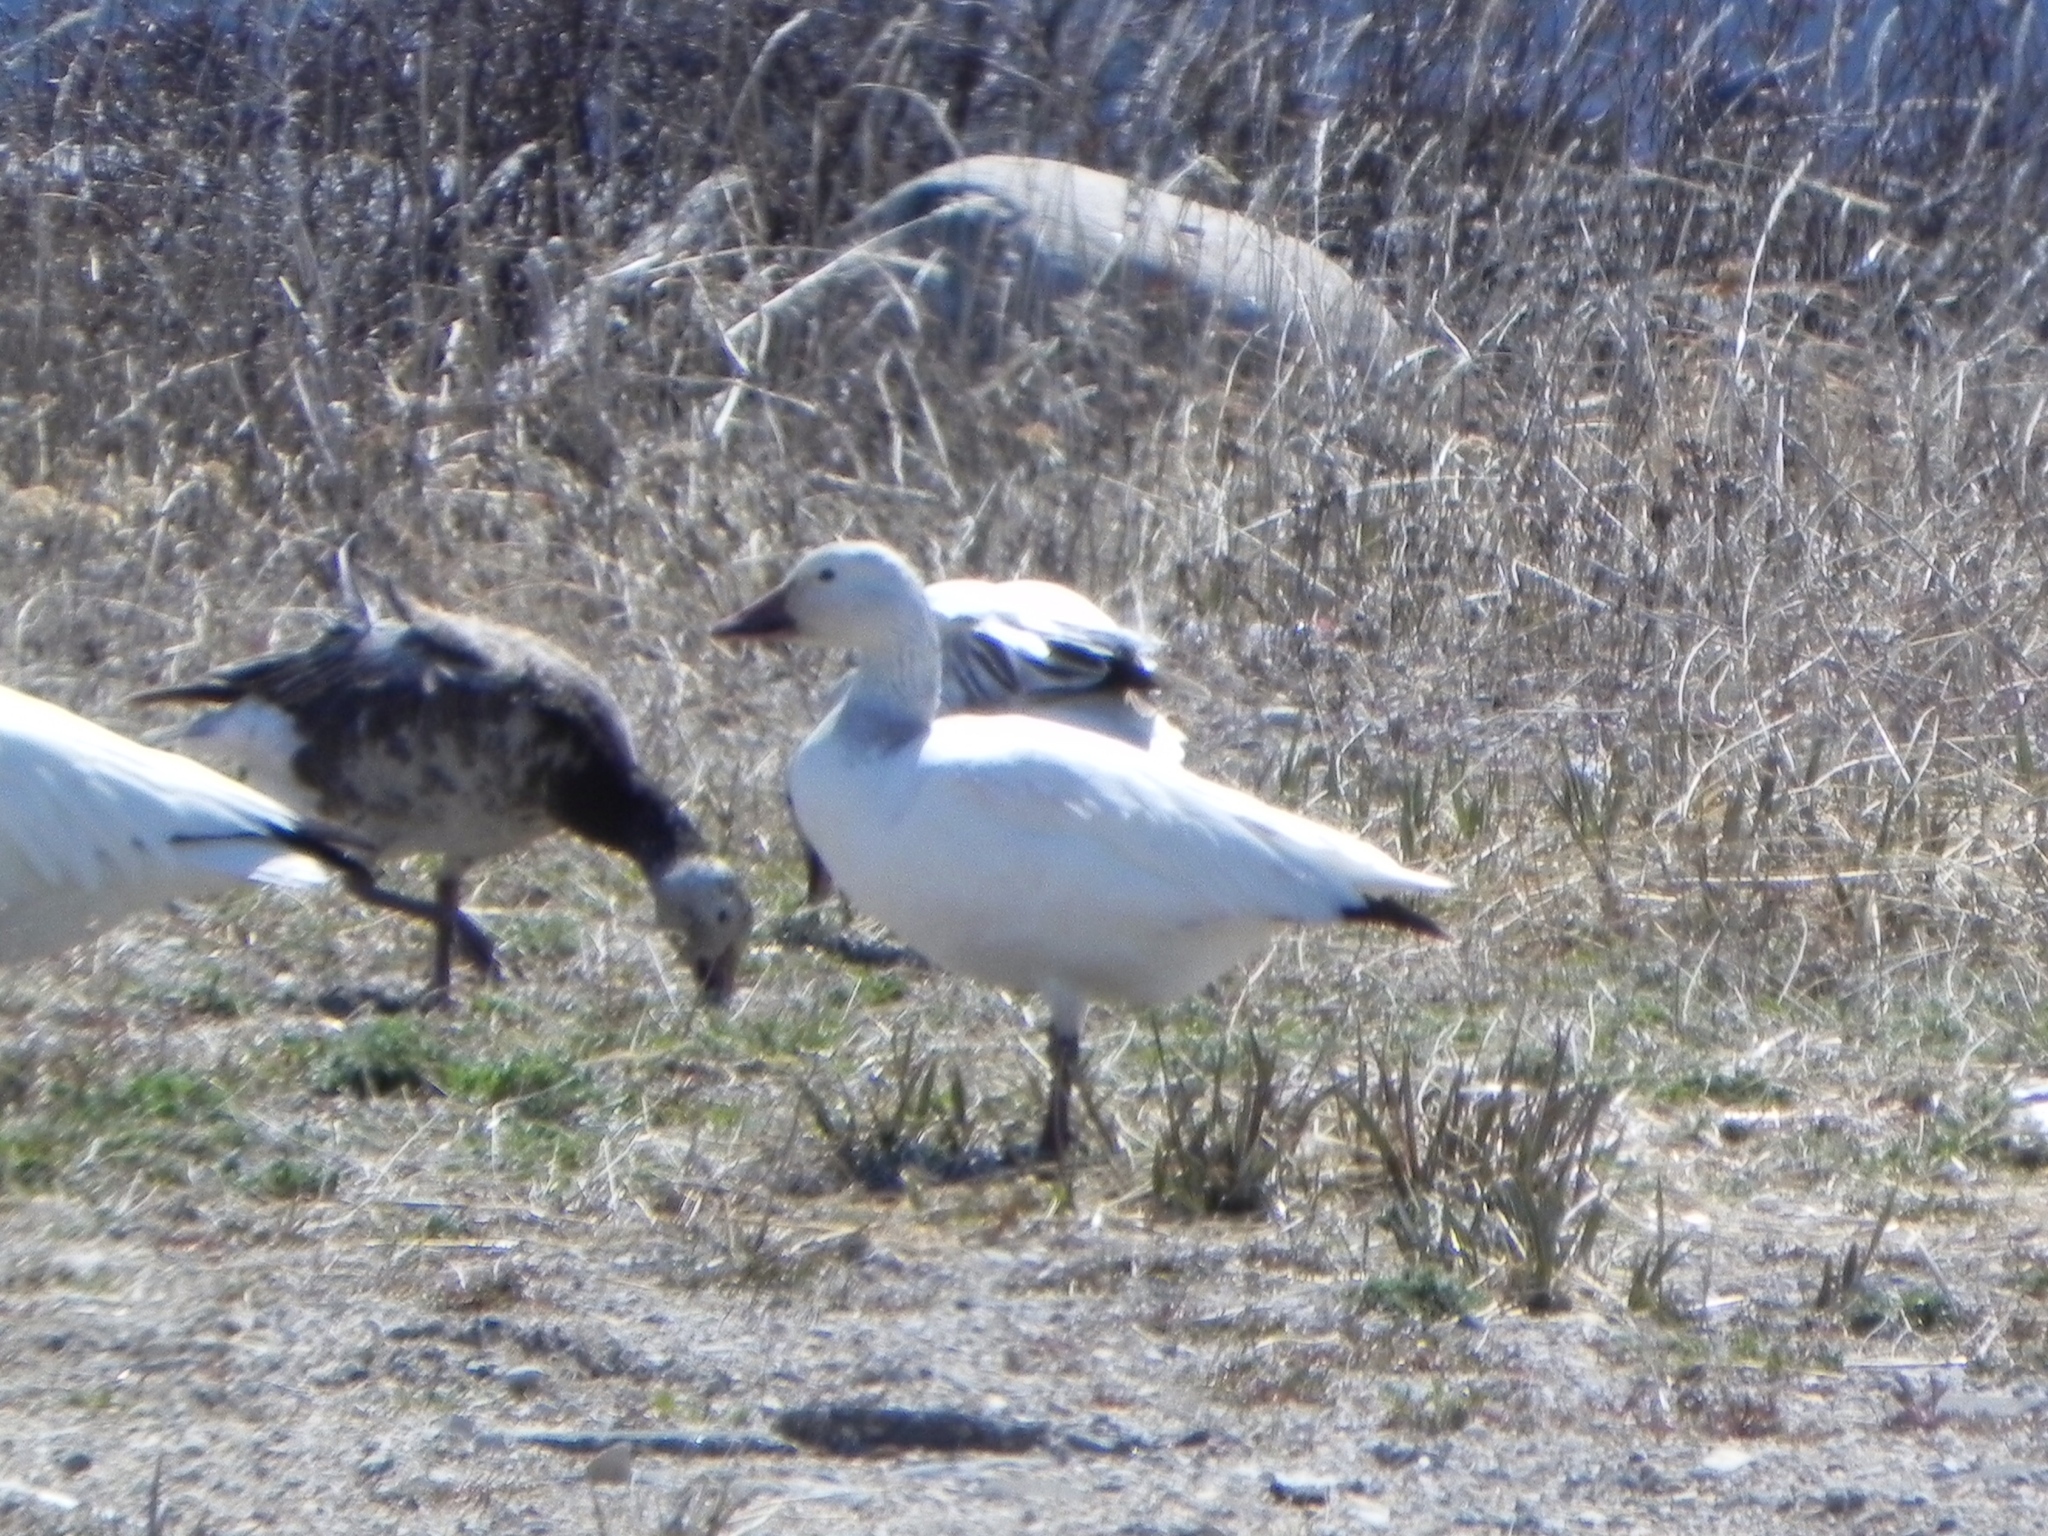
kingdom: Animalia
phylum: Chordata
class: Aves
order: Anseriformes
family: Anatidae
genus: Anser
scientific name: Anser caerulescens
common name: Snow goose
